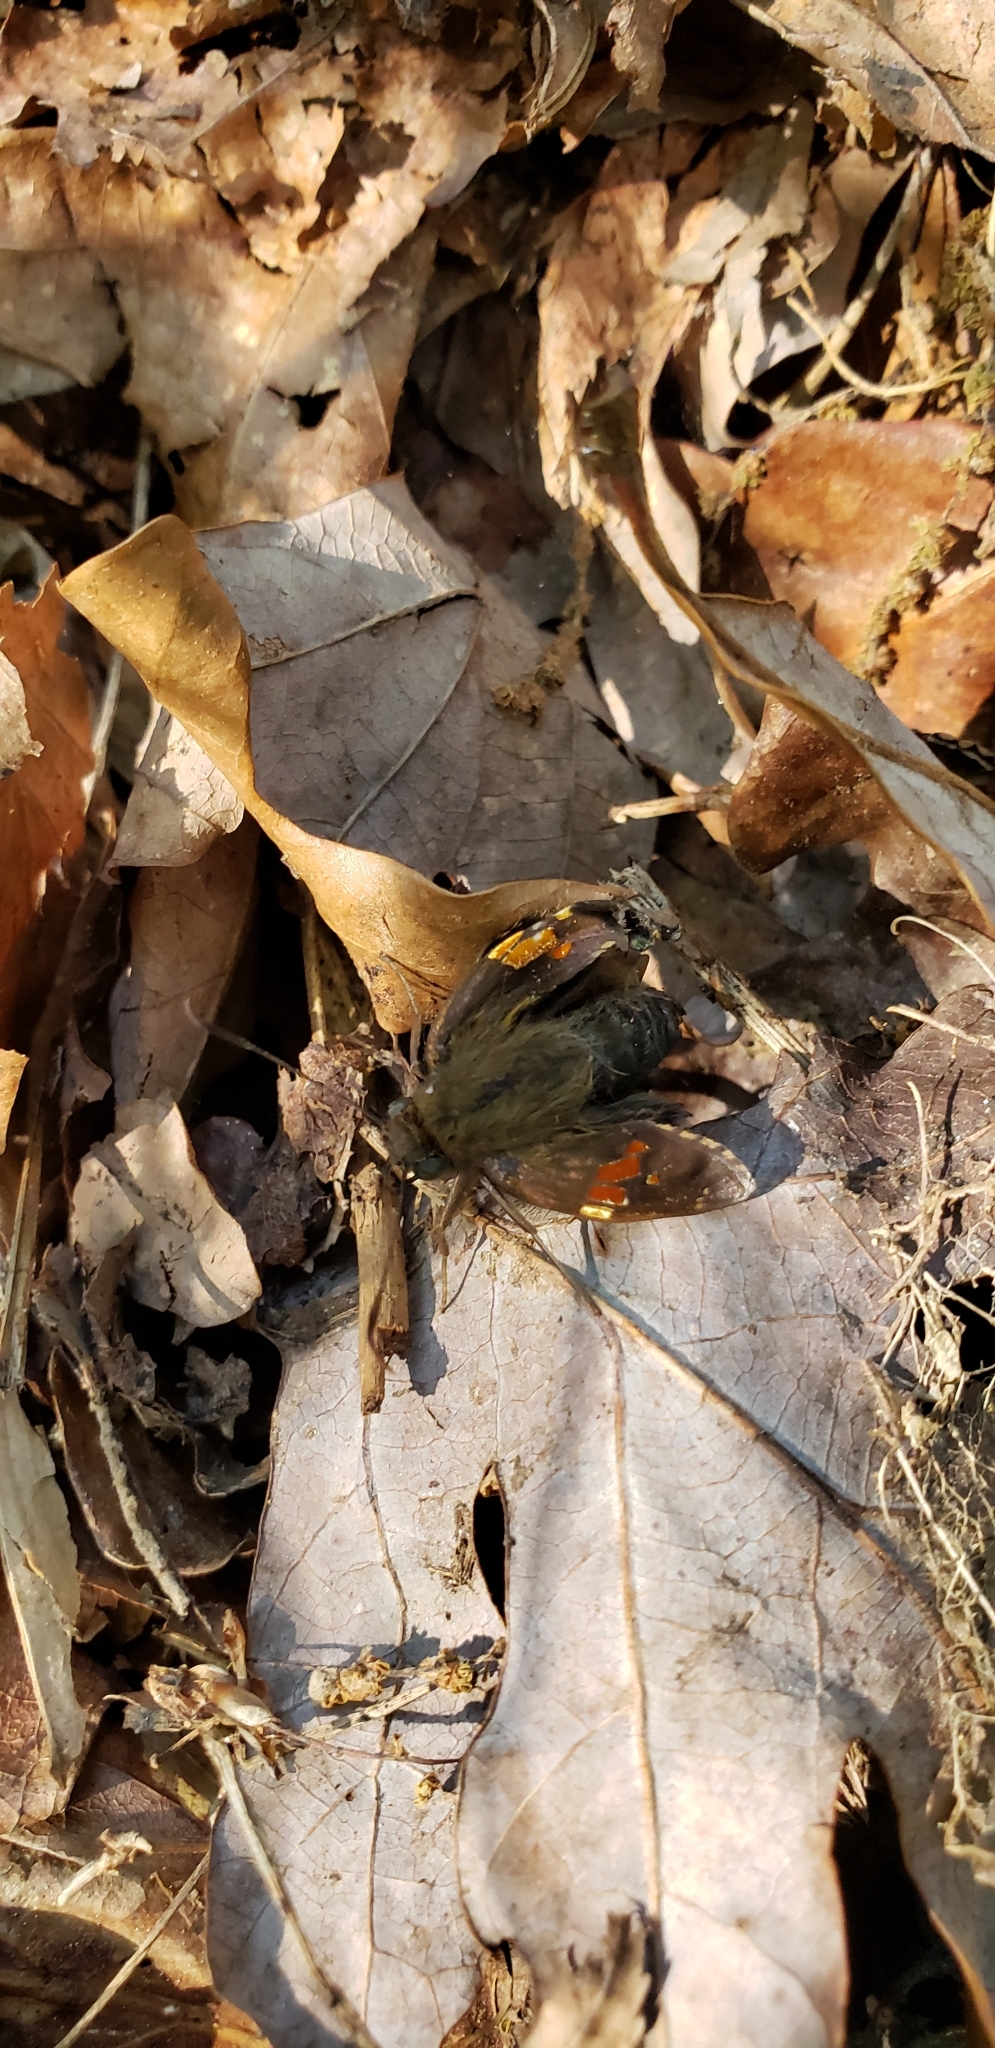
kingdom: Animalia
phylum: Arthropoda
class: Insecta
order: Lepidoptera
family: Hesperiidae
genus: Epargyreus
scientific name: Epargyreus clarus
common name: Silver-spotted skipper
